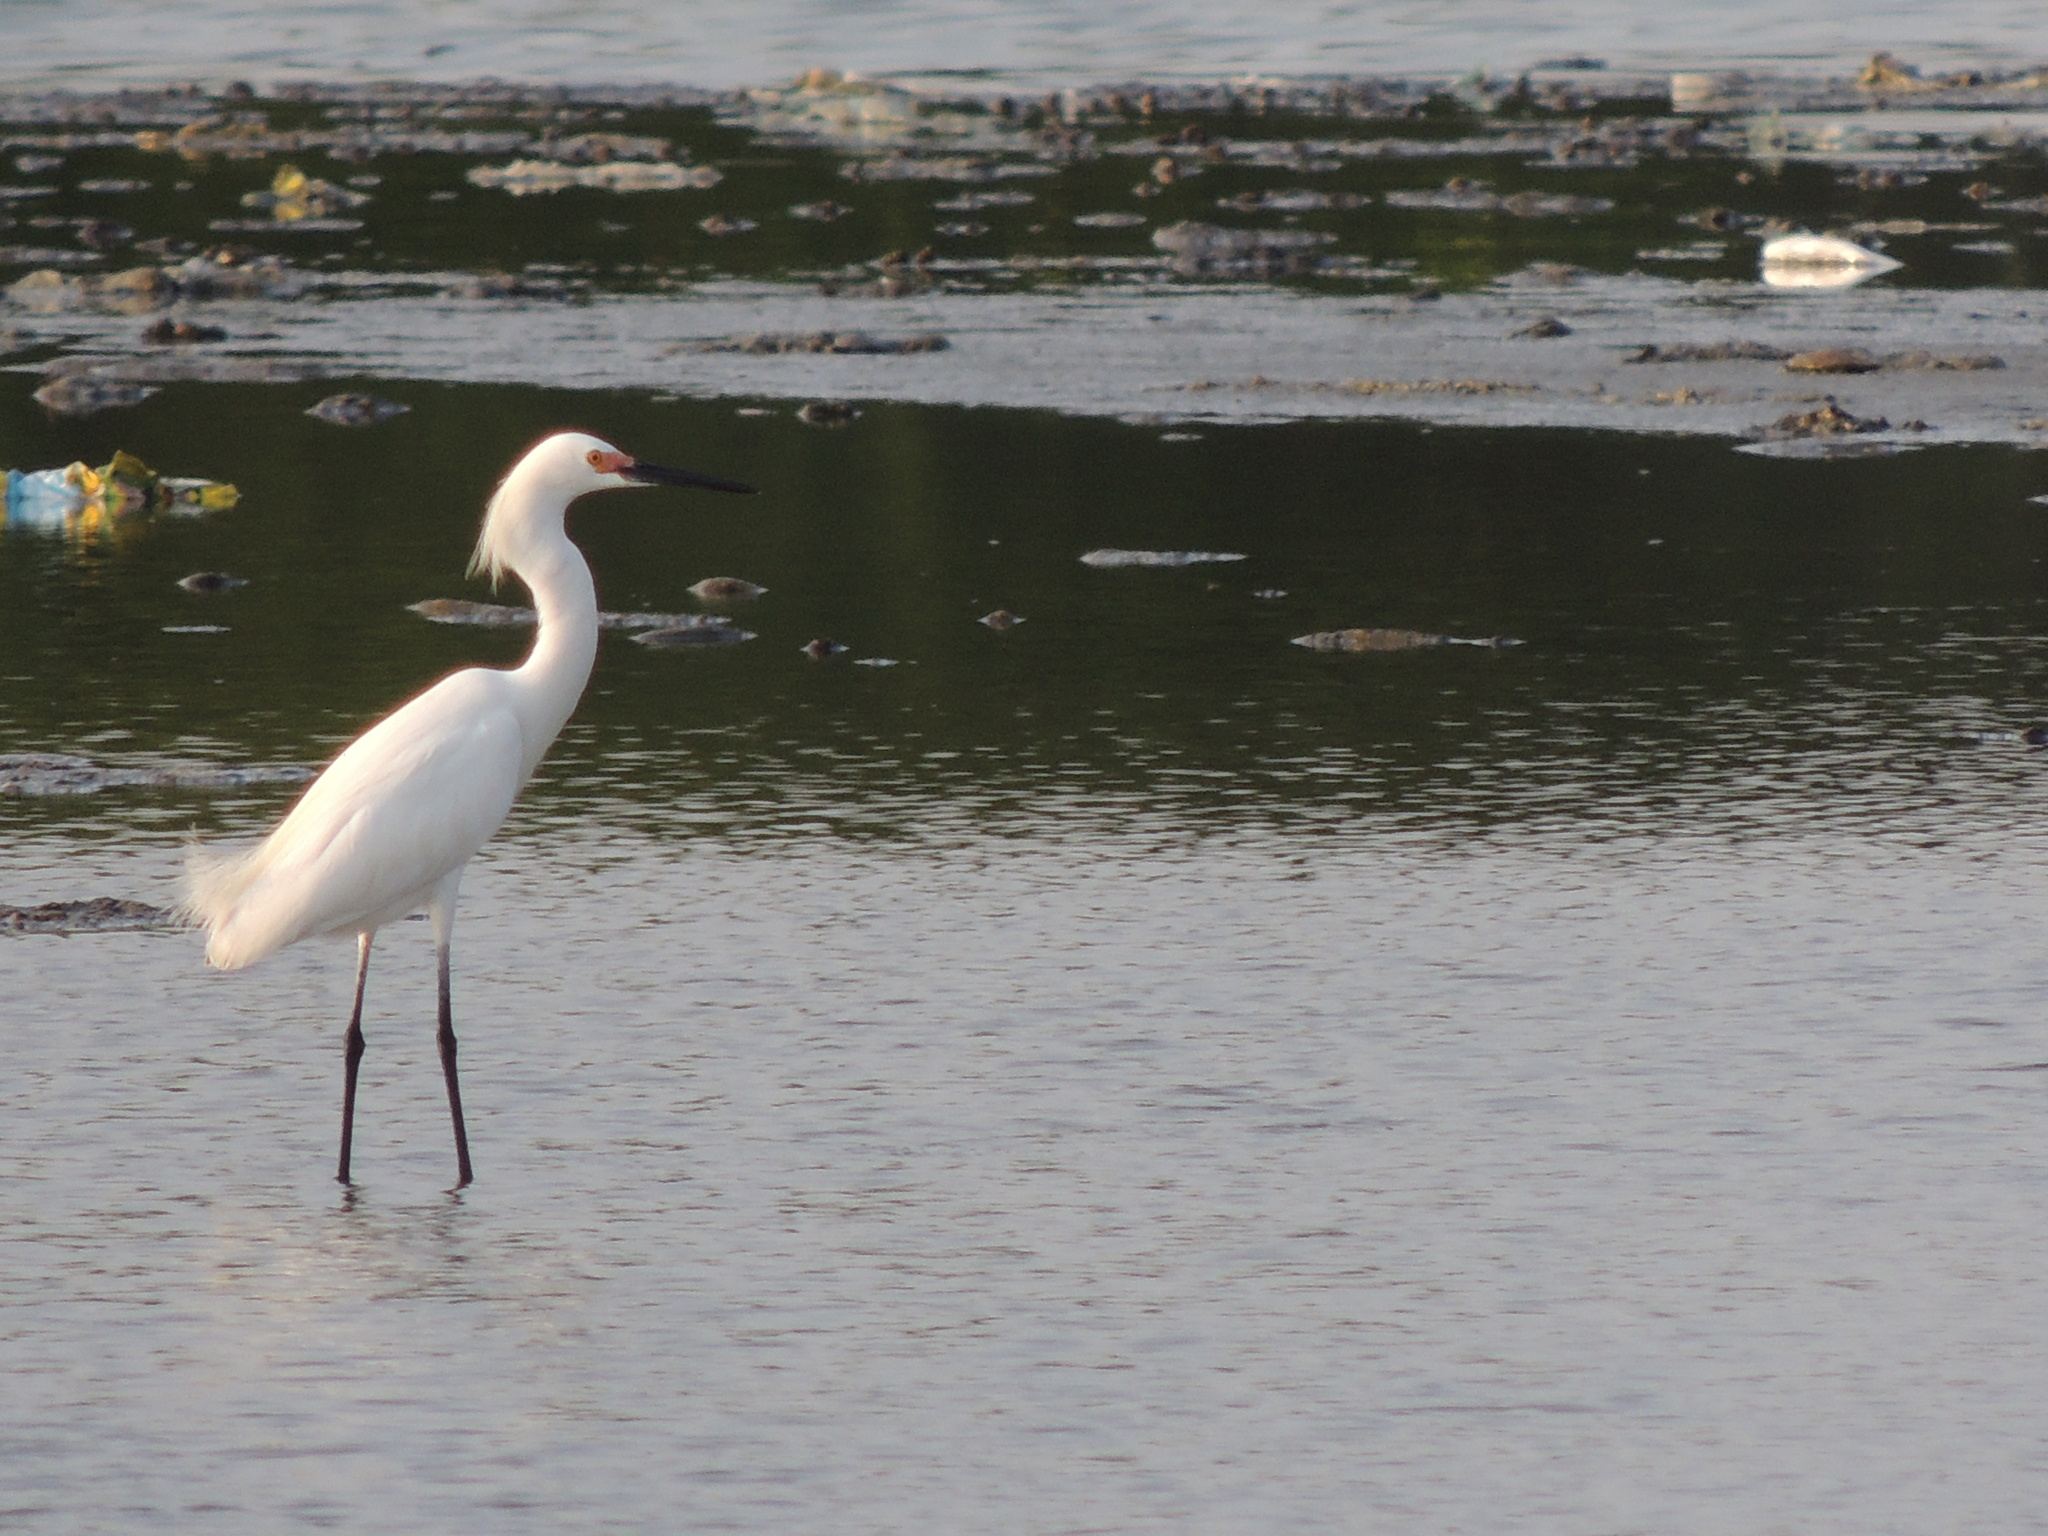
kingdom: Animalia
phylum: Chordata
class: Aves
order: Pelecaniformes
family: Ardeidae
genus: Egretta
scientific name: Egretta thula
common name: Snowy egret
